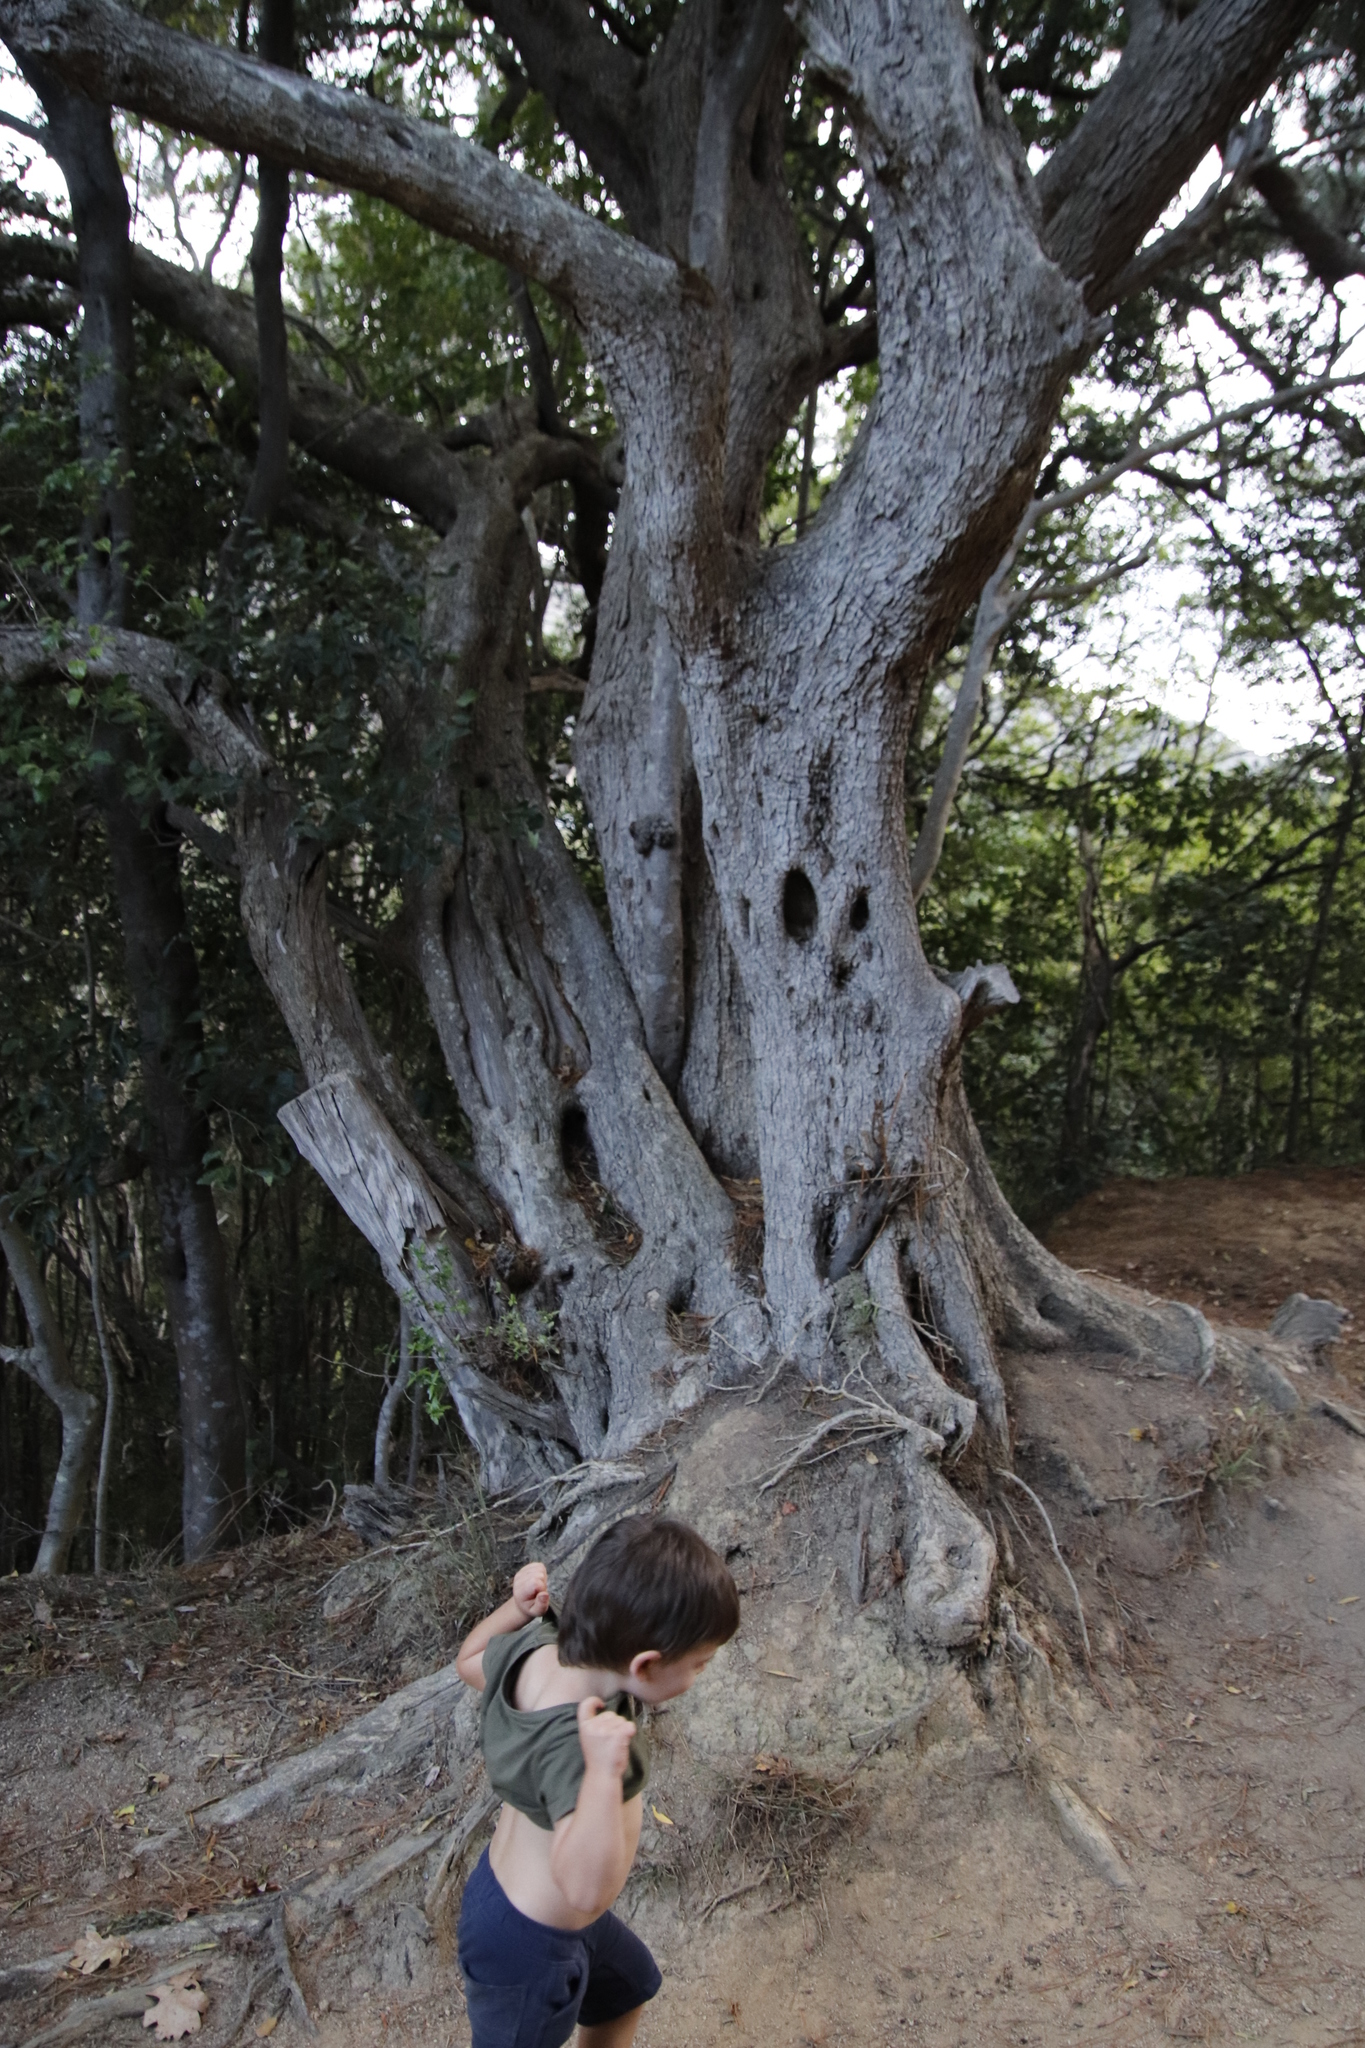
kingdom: Plantae
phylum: Tracheophyta
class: Magnoliopsida
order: Lamiales
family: Oleaceae
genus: Olea
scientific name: Olea europaea
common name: Olive
